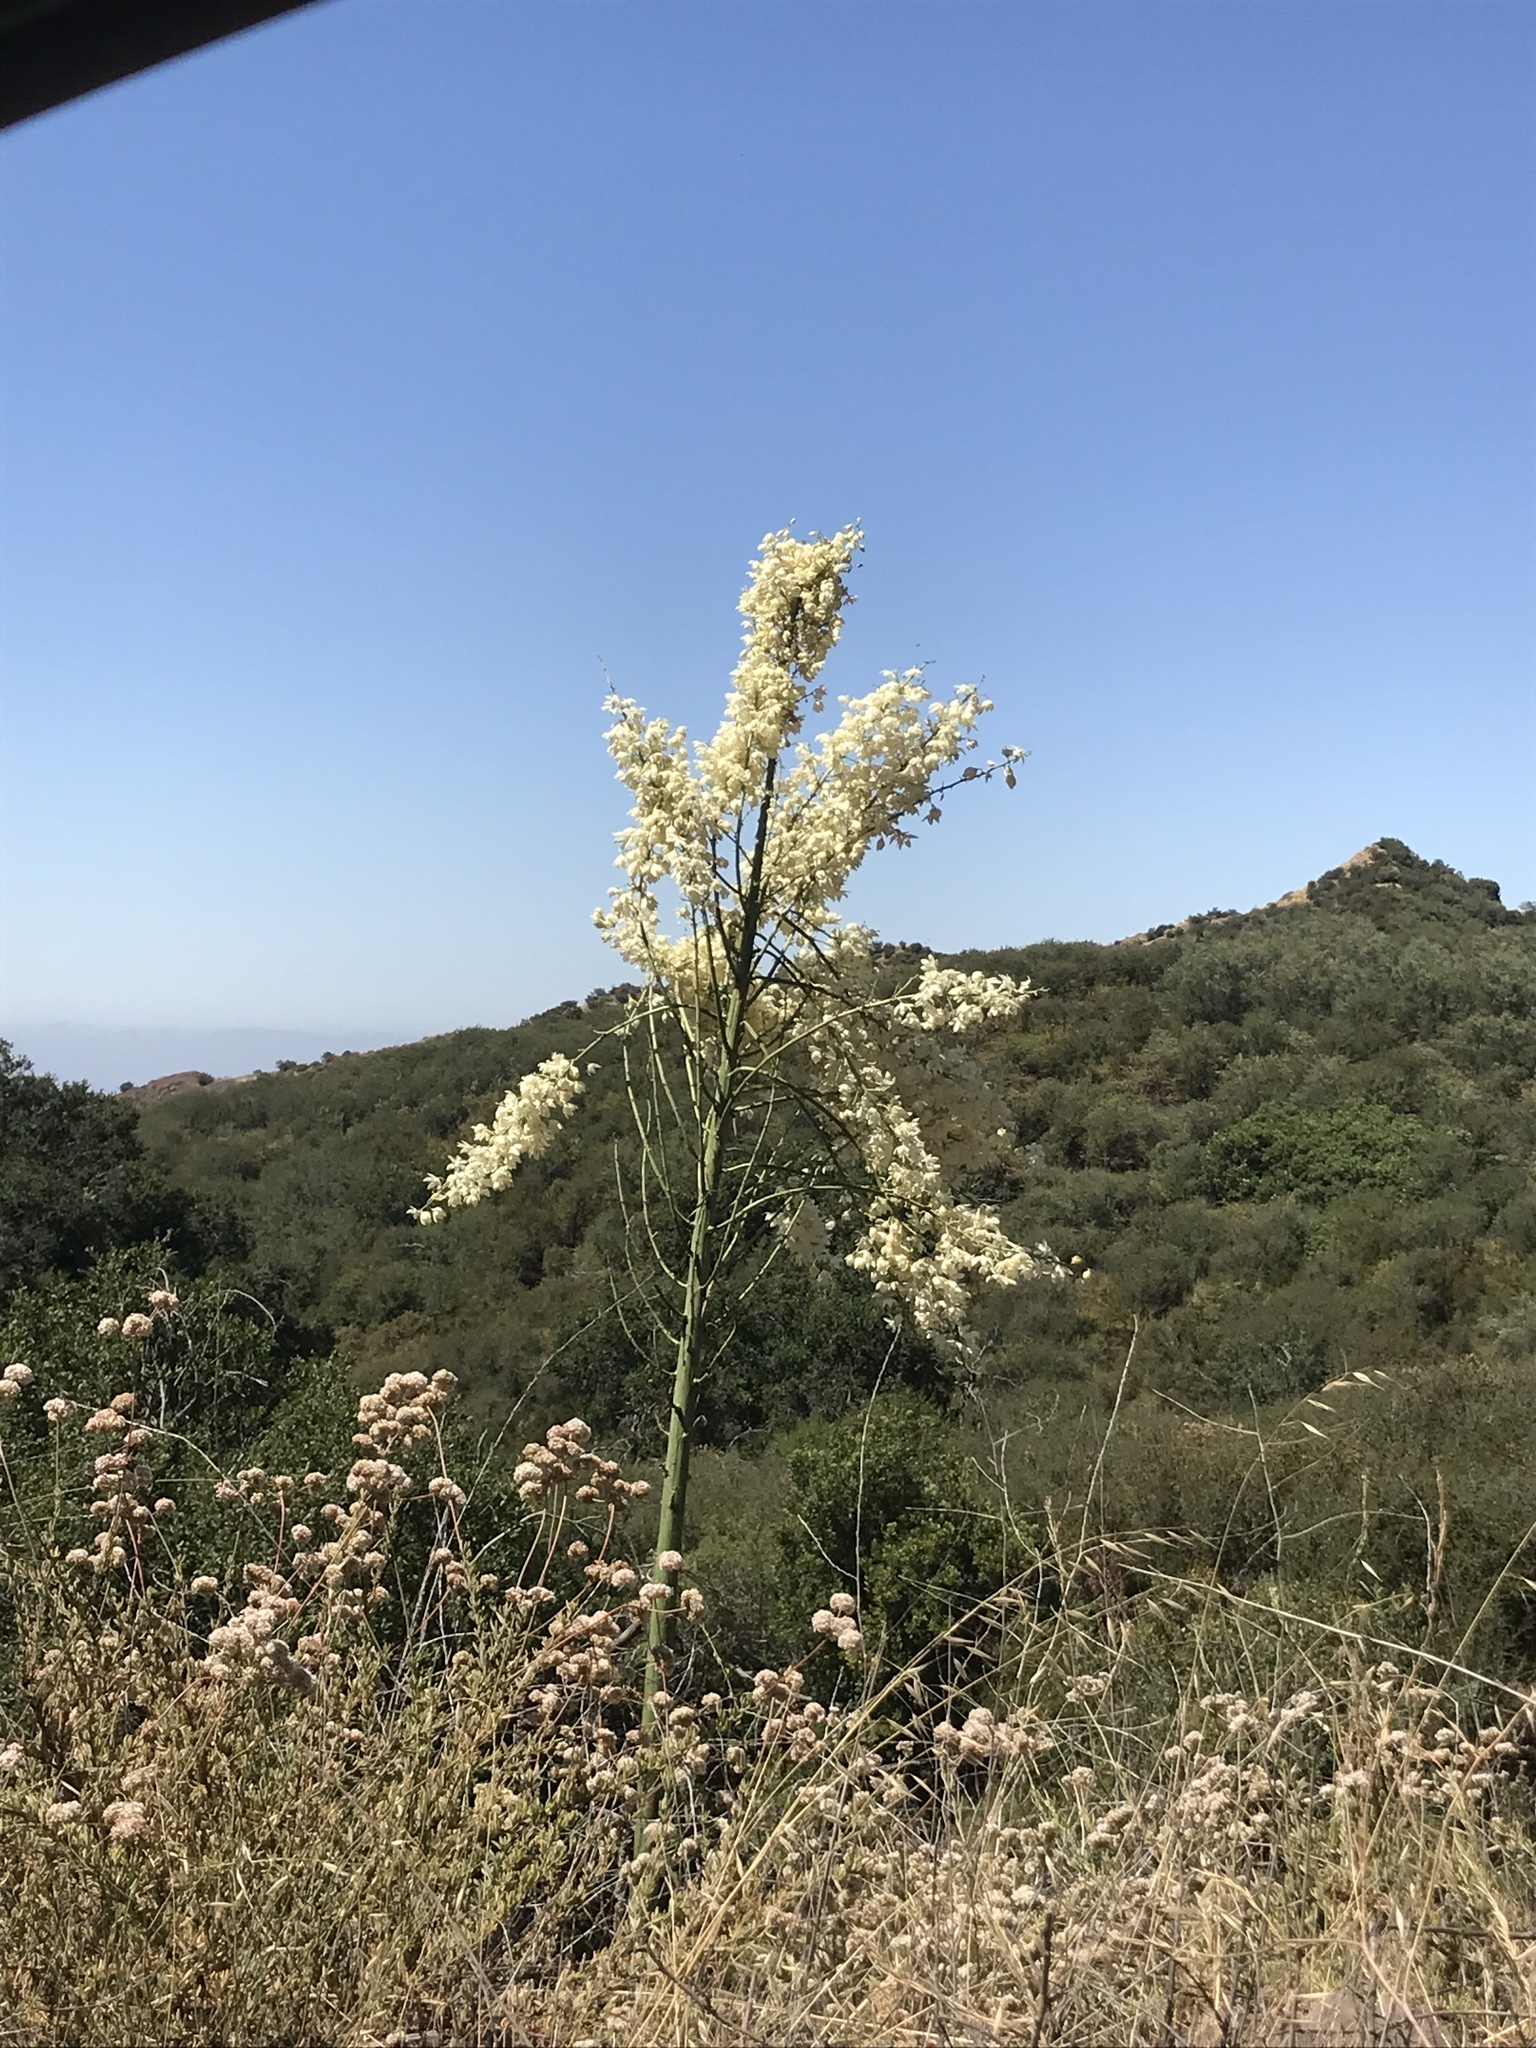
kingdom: Plantae
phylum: Tracheophyta
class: Liliopsida
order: Asparagales
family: Asparagaceae
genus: Hesperoyucca
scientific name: Hesperoyucca whipplei
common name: Our lord's-candle
